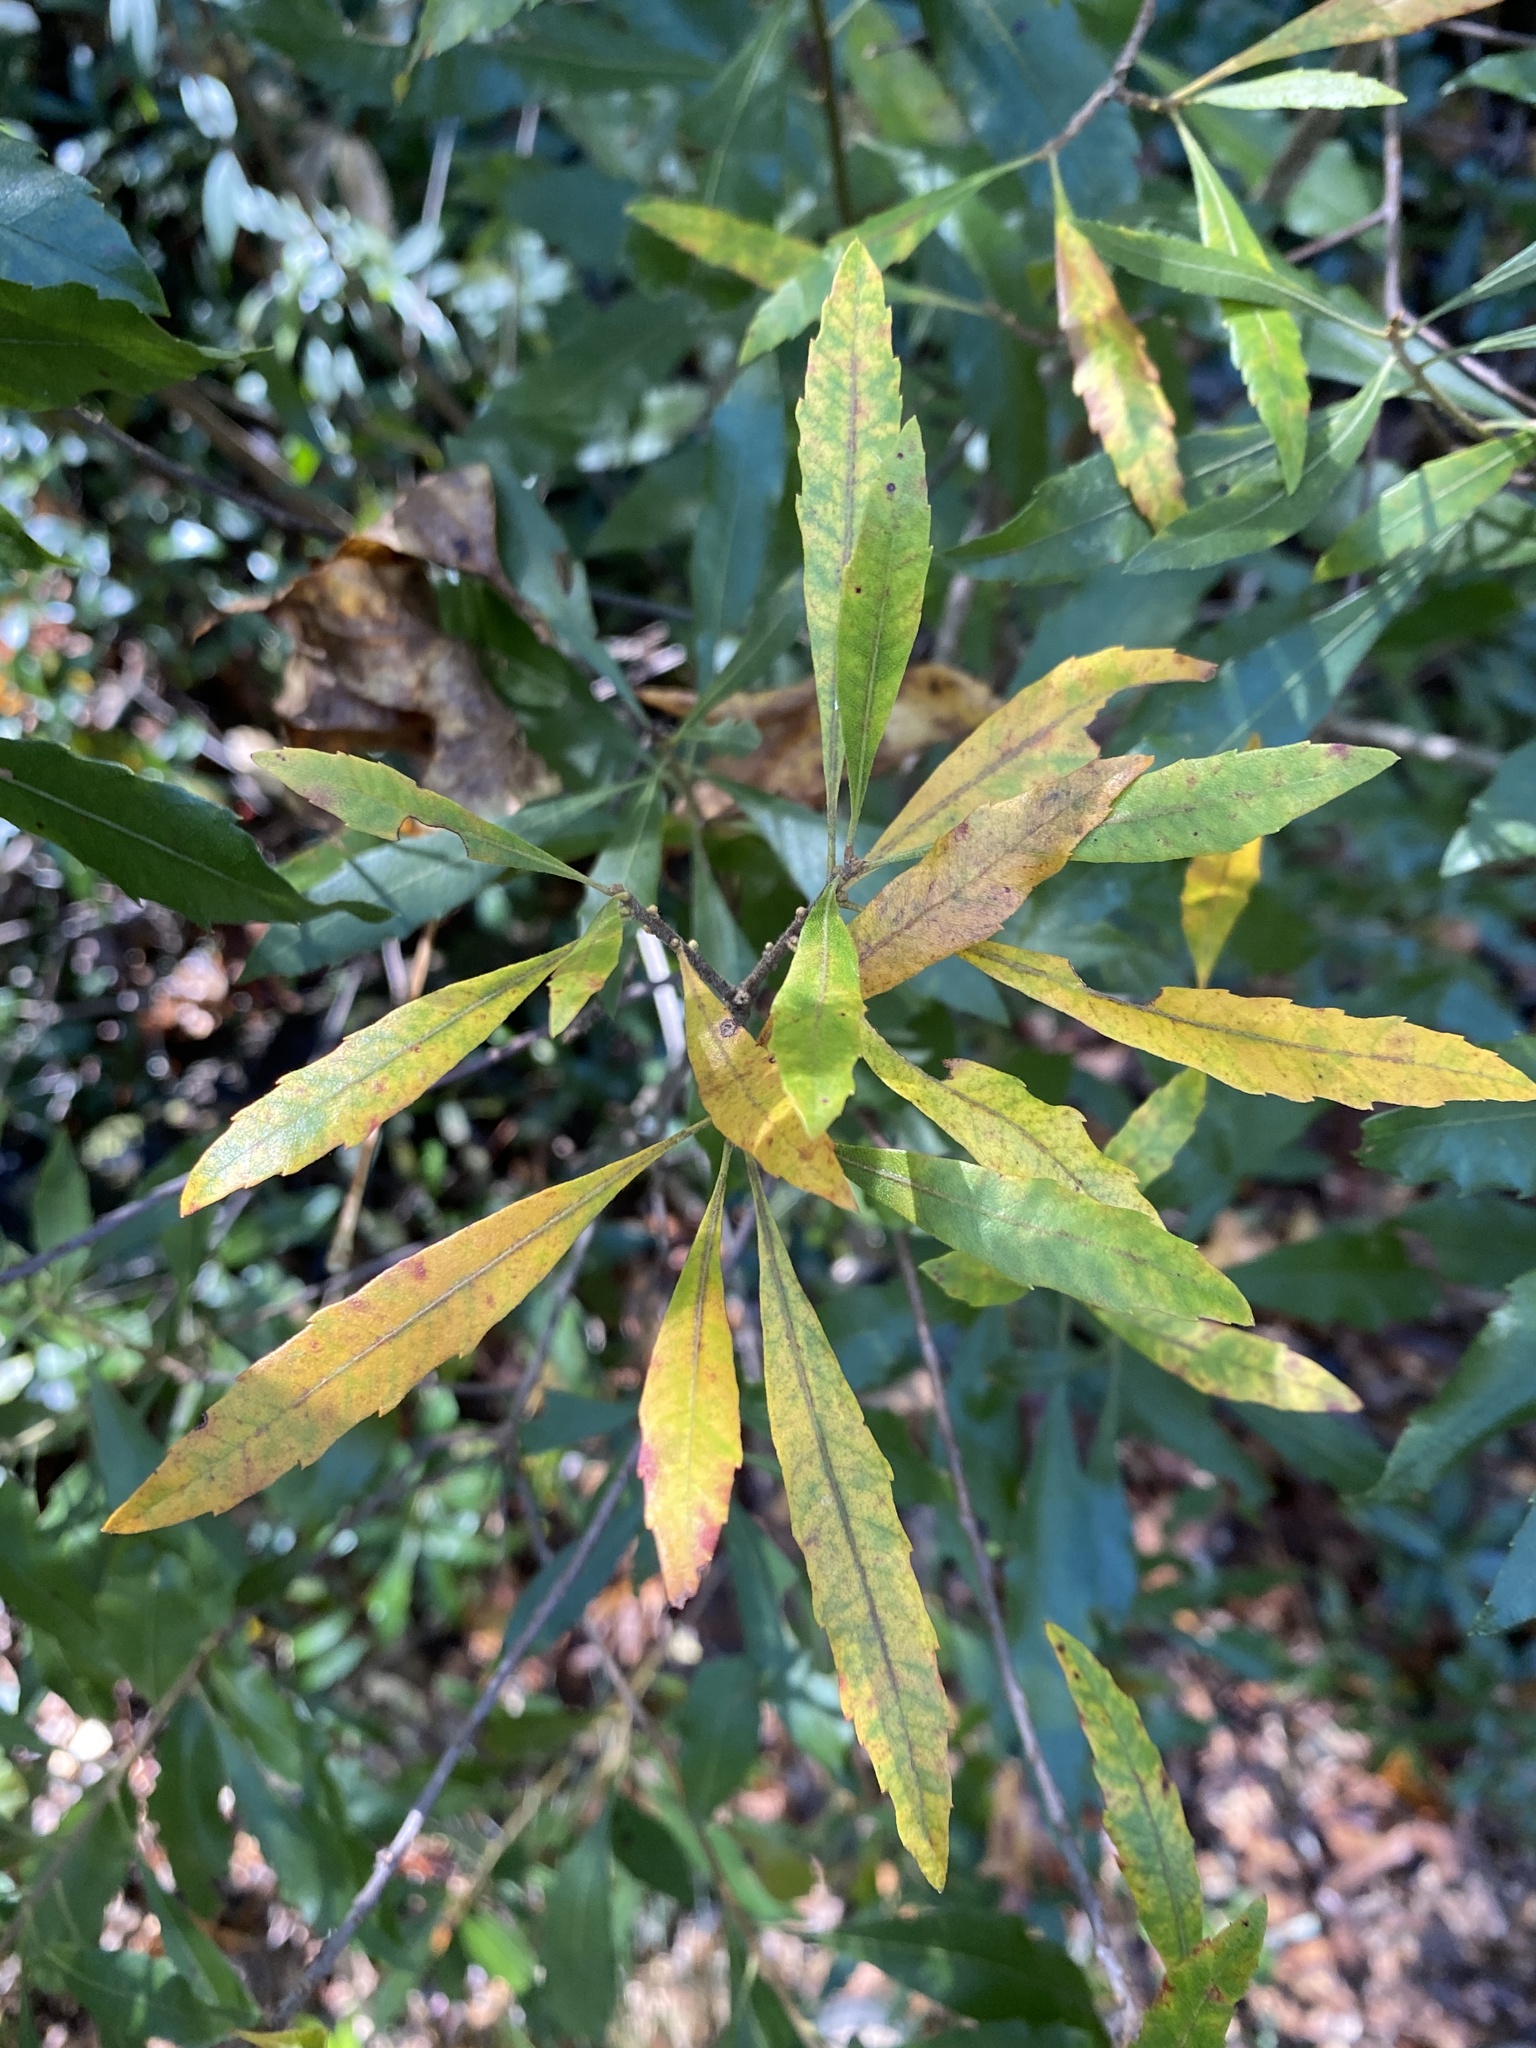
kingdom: Plantae
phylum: Tracheophyta
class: Magnoliopsida
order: Fagales
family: Myricaceae
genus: Morella
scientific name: Morella cerifera
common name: Wax myrtle
